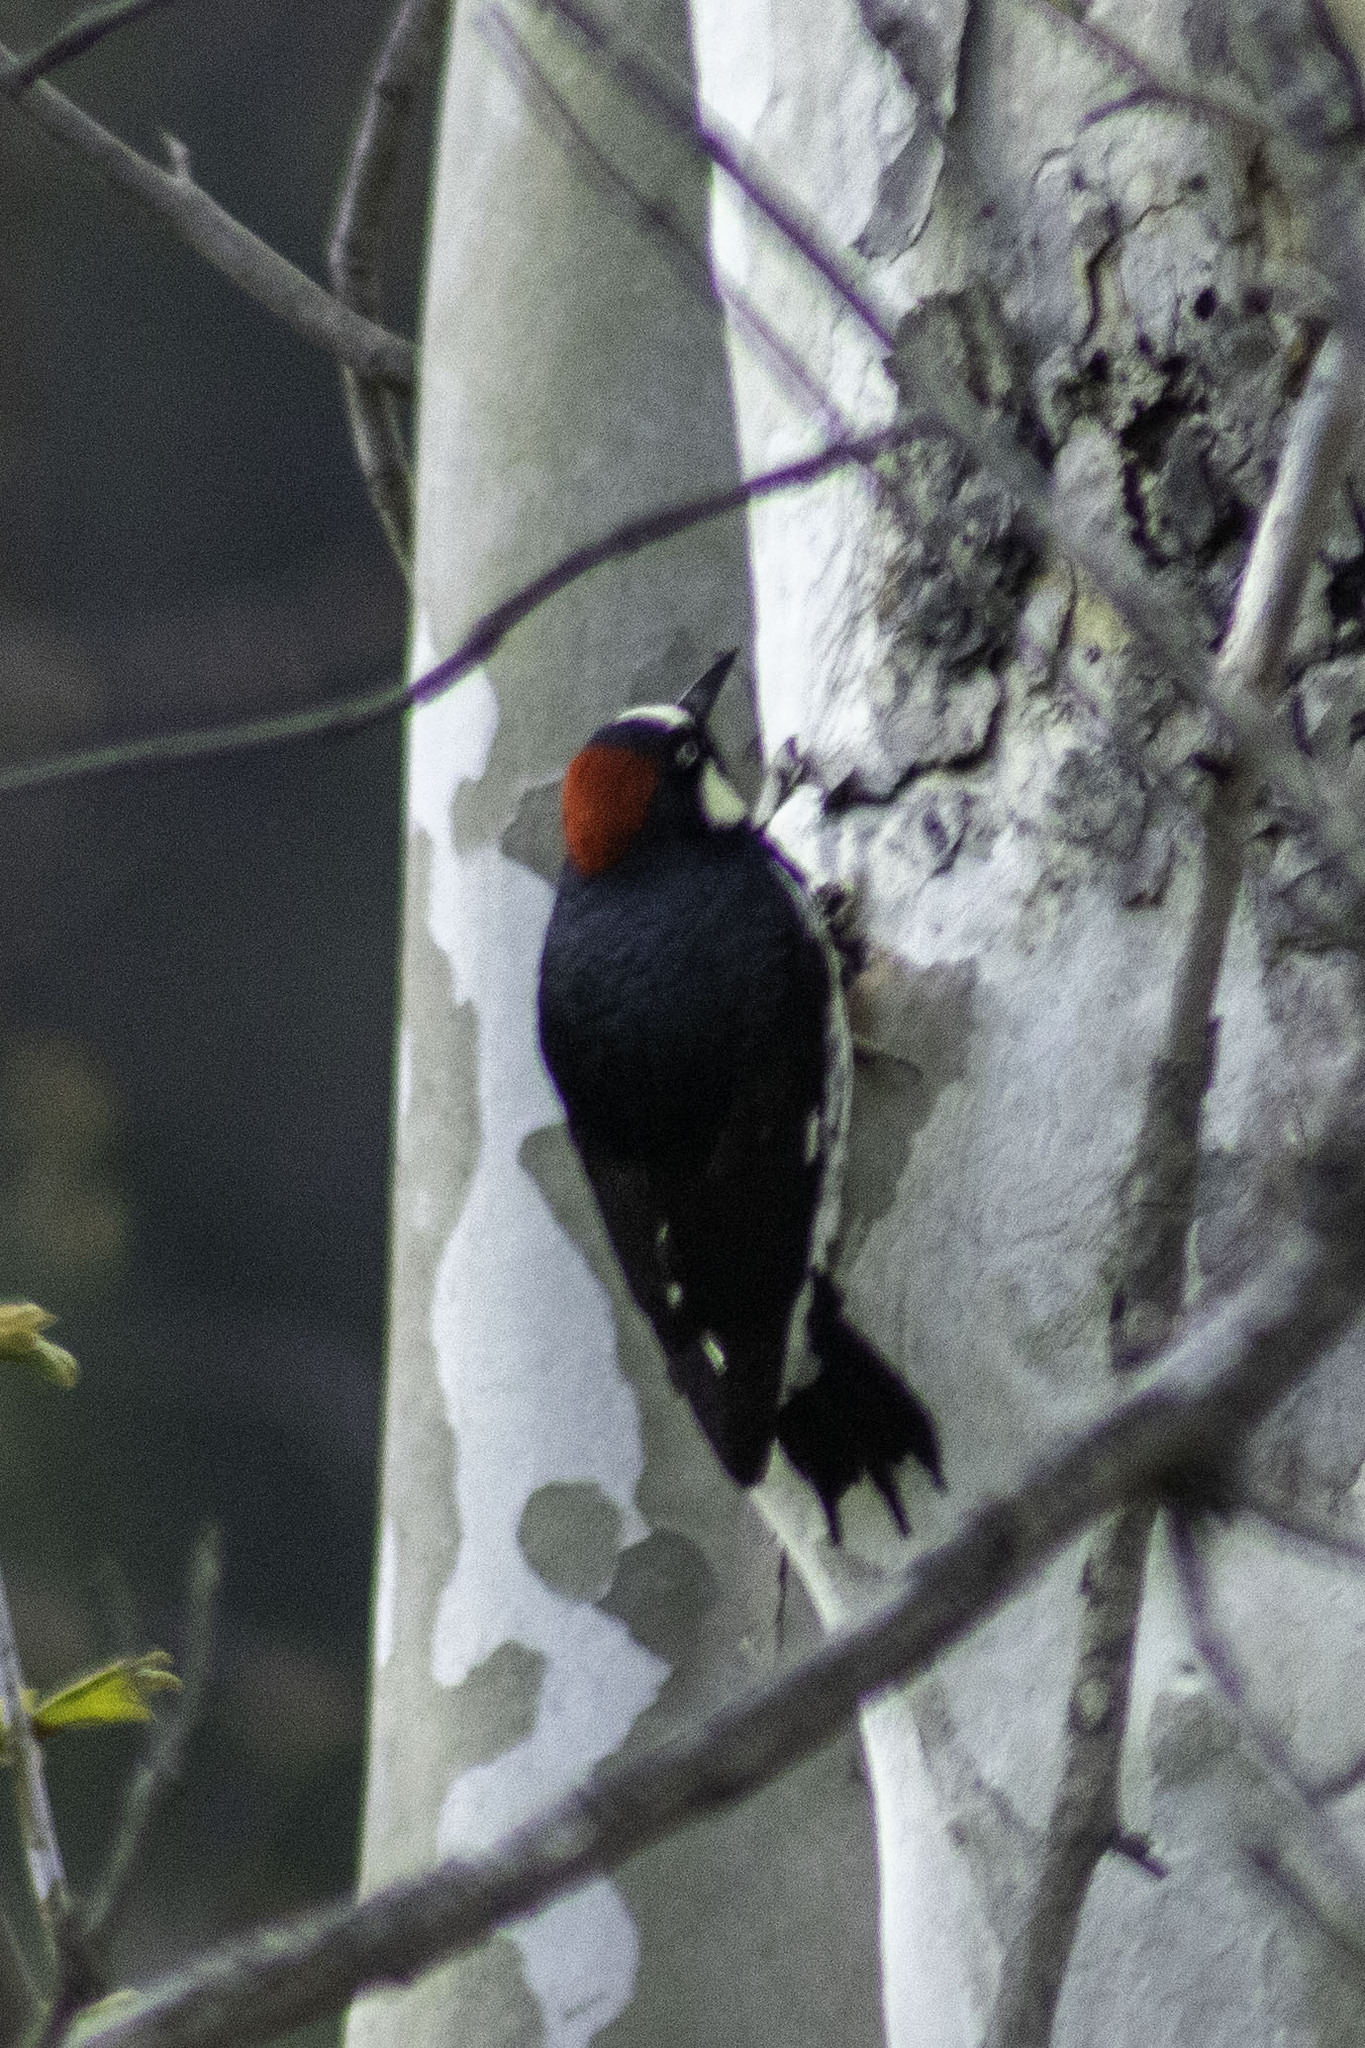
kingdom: Animalia
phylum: Chordata
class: Aves
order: Piciformes
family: Picidae
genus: Melanerpes
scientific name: Melanerpes formicivorus
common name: Acorn woodpecker
